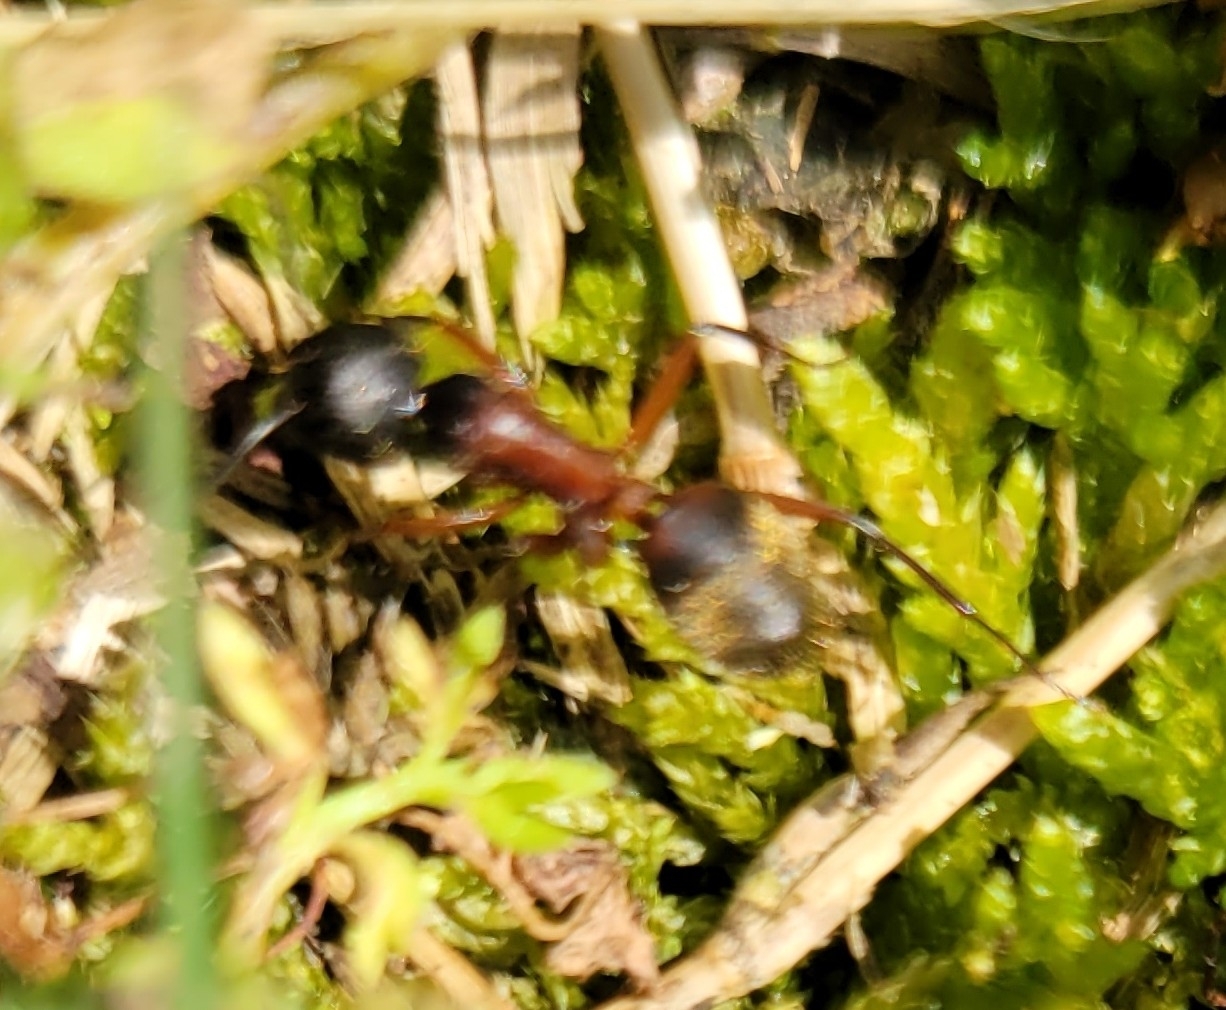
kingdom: Animalia
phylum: Arthropoda
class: Insecta
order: Hymenoptera
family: Formicidae
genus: Camponotus
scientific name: Camponotus chromaiodes
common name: Red carpenter ant
